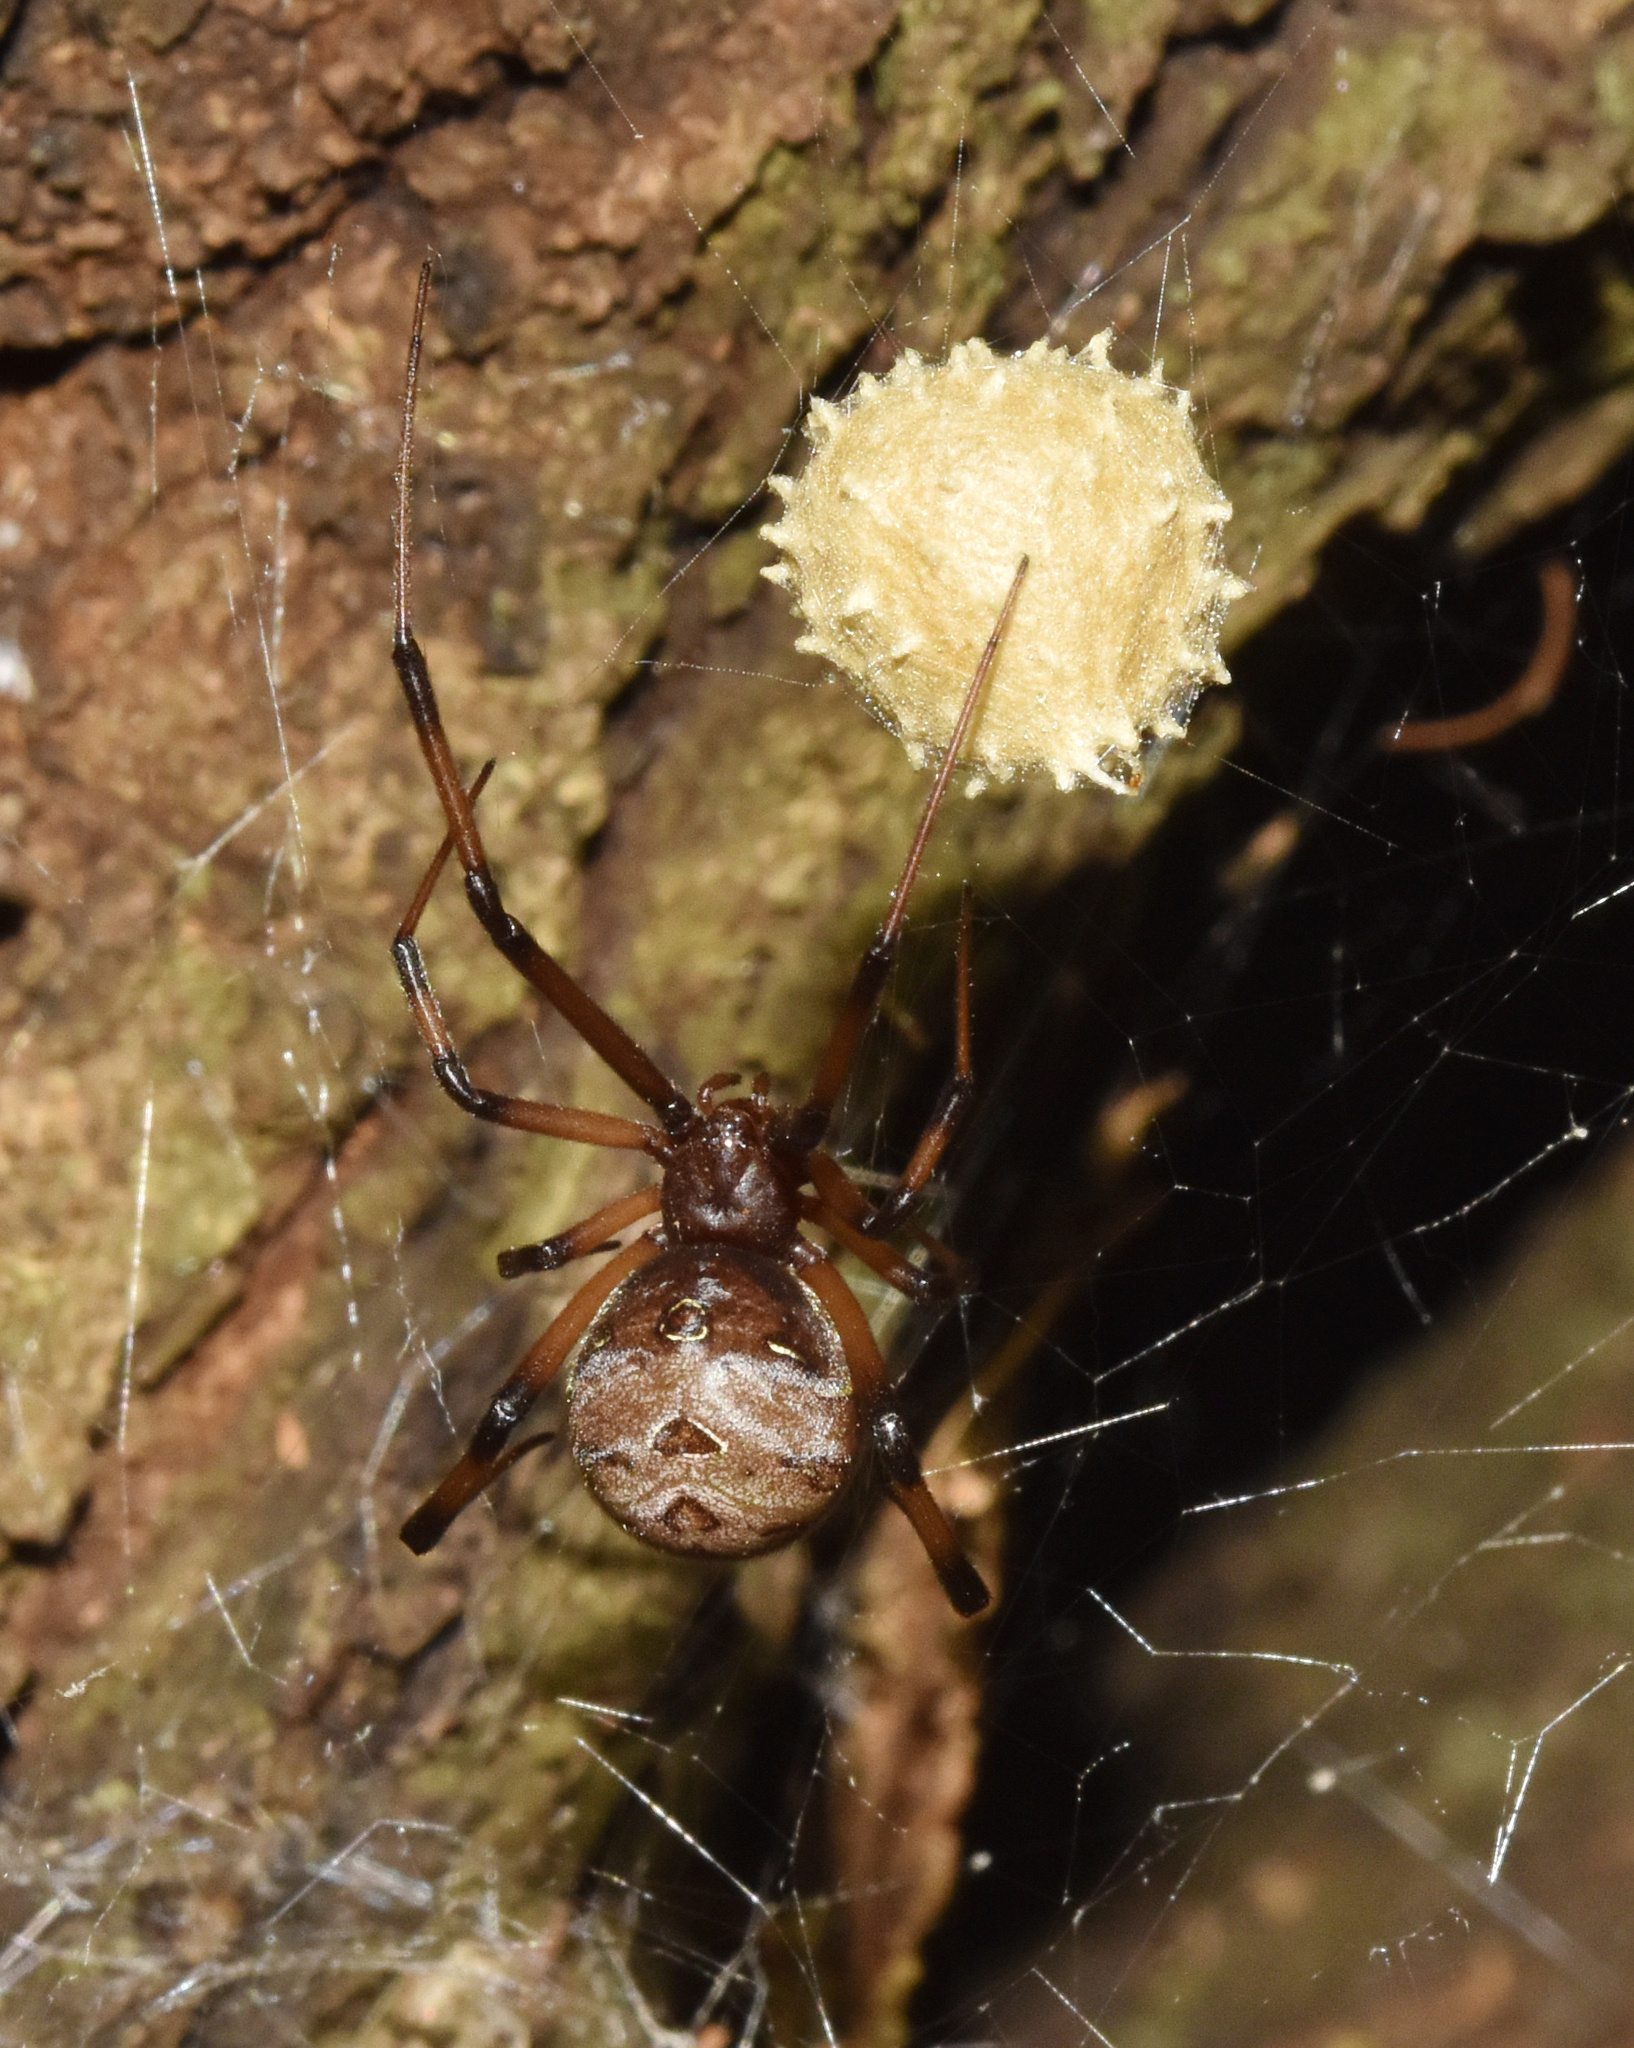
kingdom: Animalia
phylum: Arthropoda
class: Arachnida
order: Araneae
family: Theridiidae
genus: Latrodectus
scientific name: Latrodectus geometricus
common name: Brown widow spider
